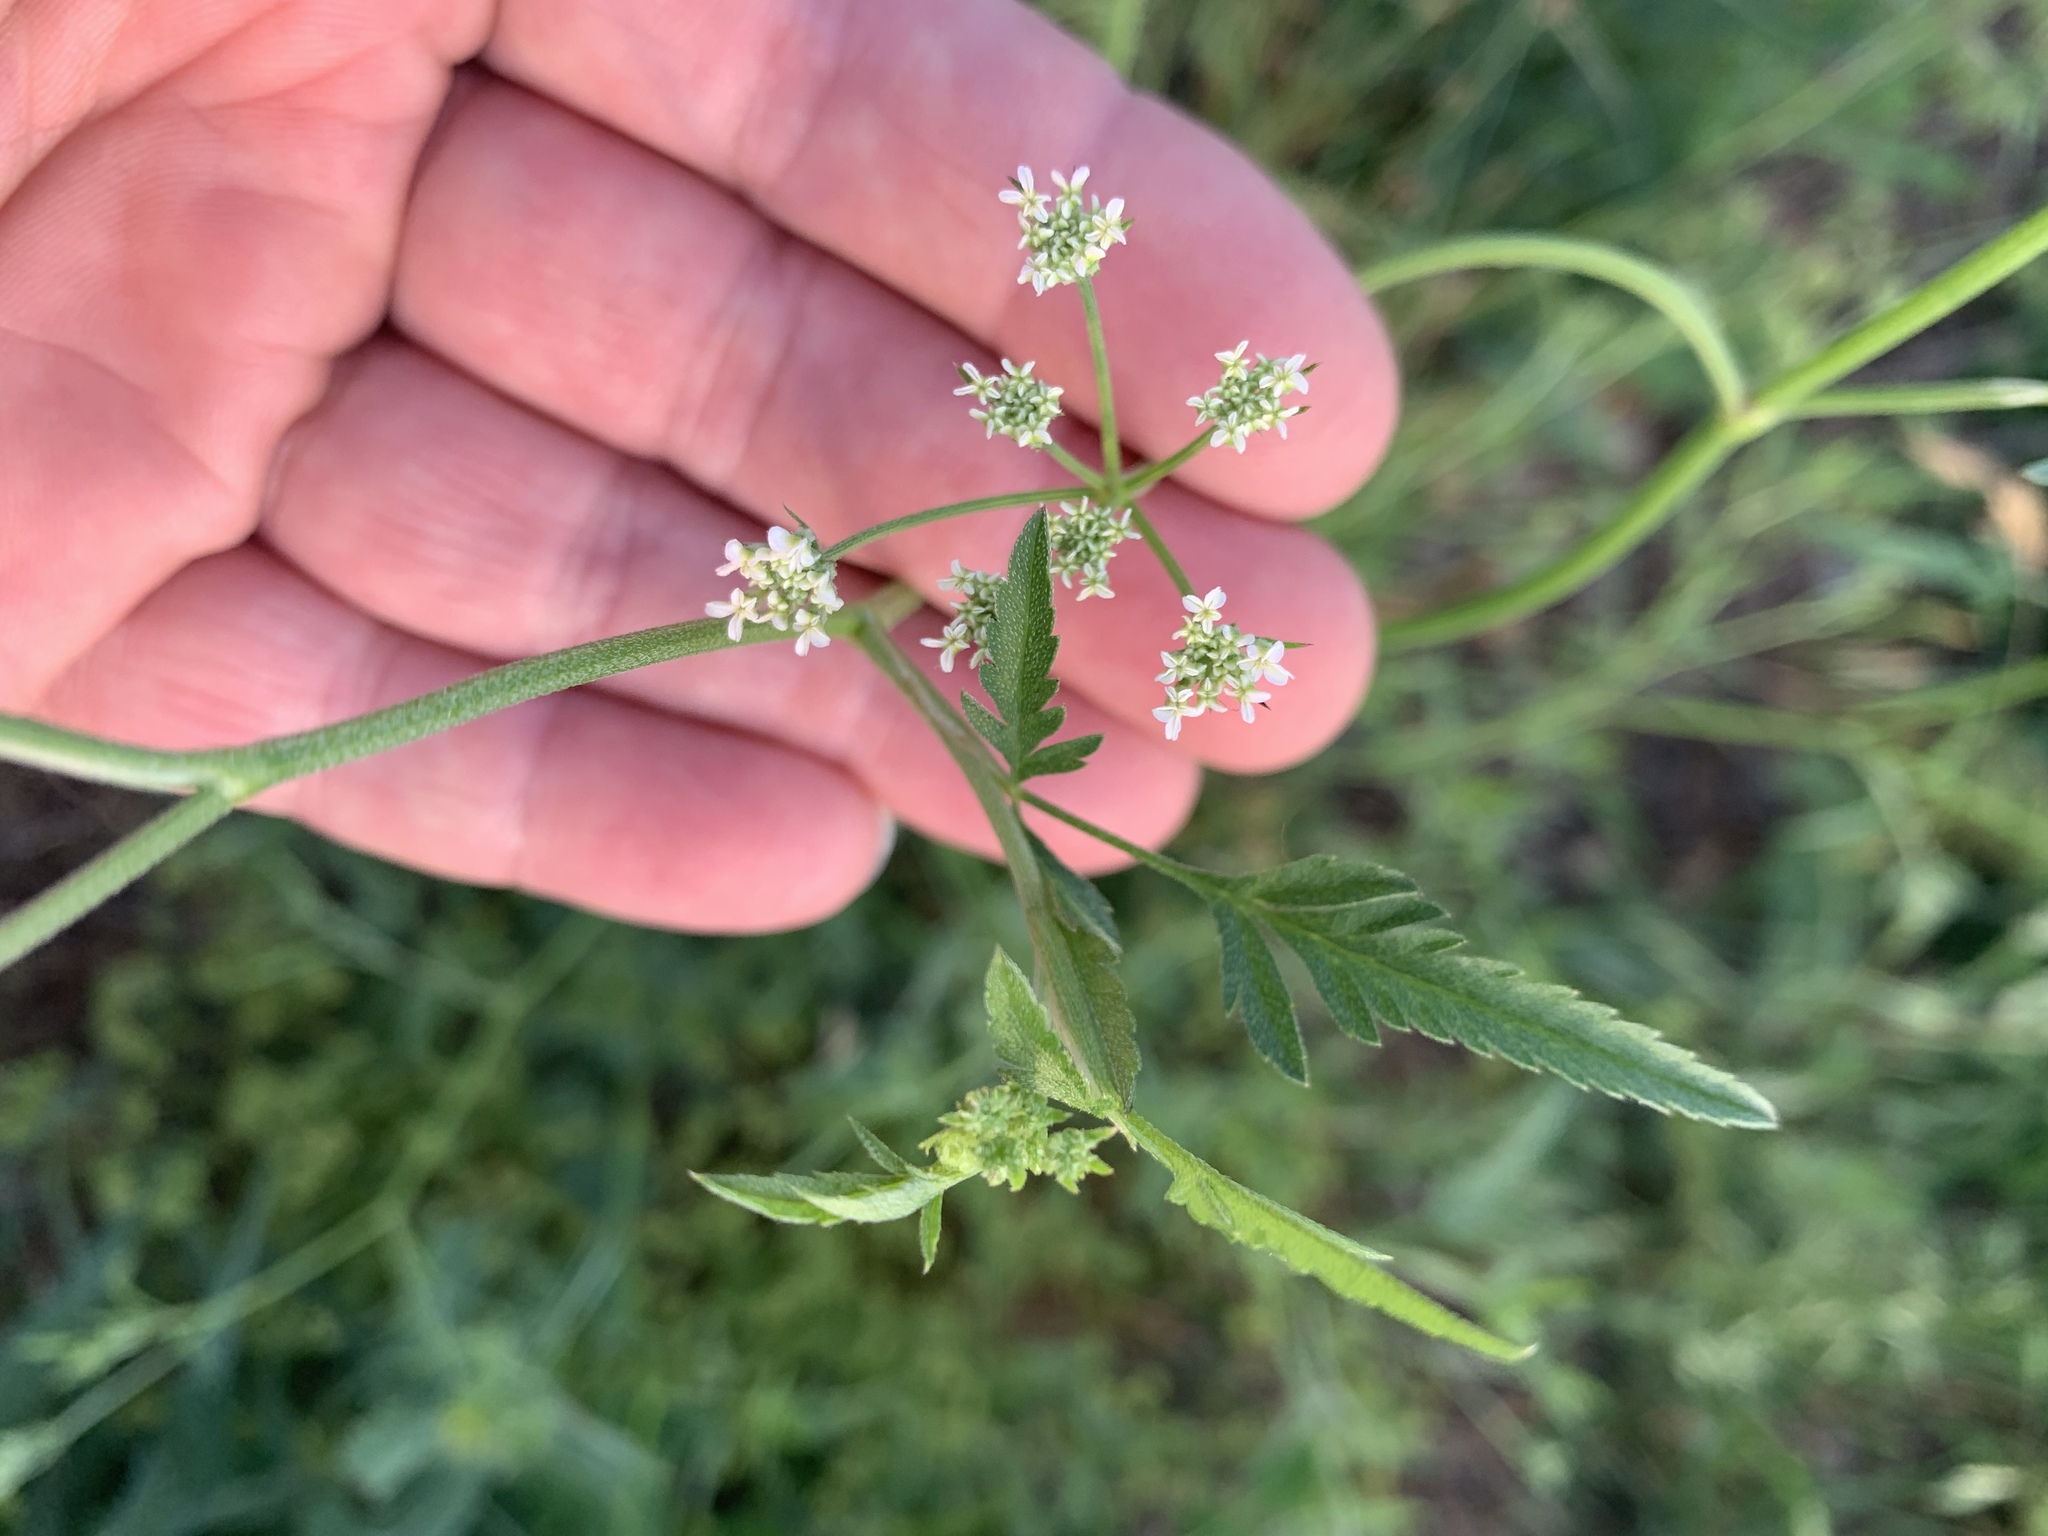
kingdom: Plantae
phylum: Tracheophyta
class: Magnoliopsida
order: Apiales
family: Apiaceae
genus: Torilis
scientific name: Torilis arvensis
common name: Spreading hedge-parsley
